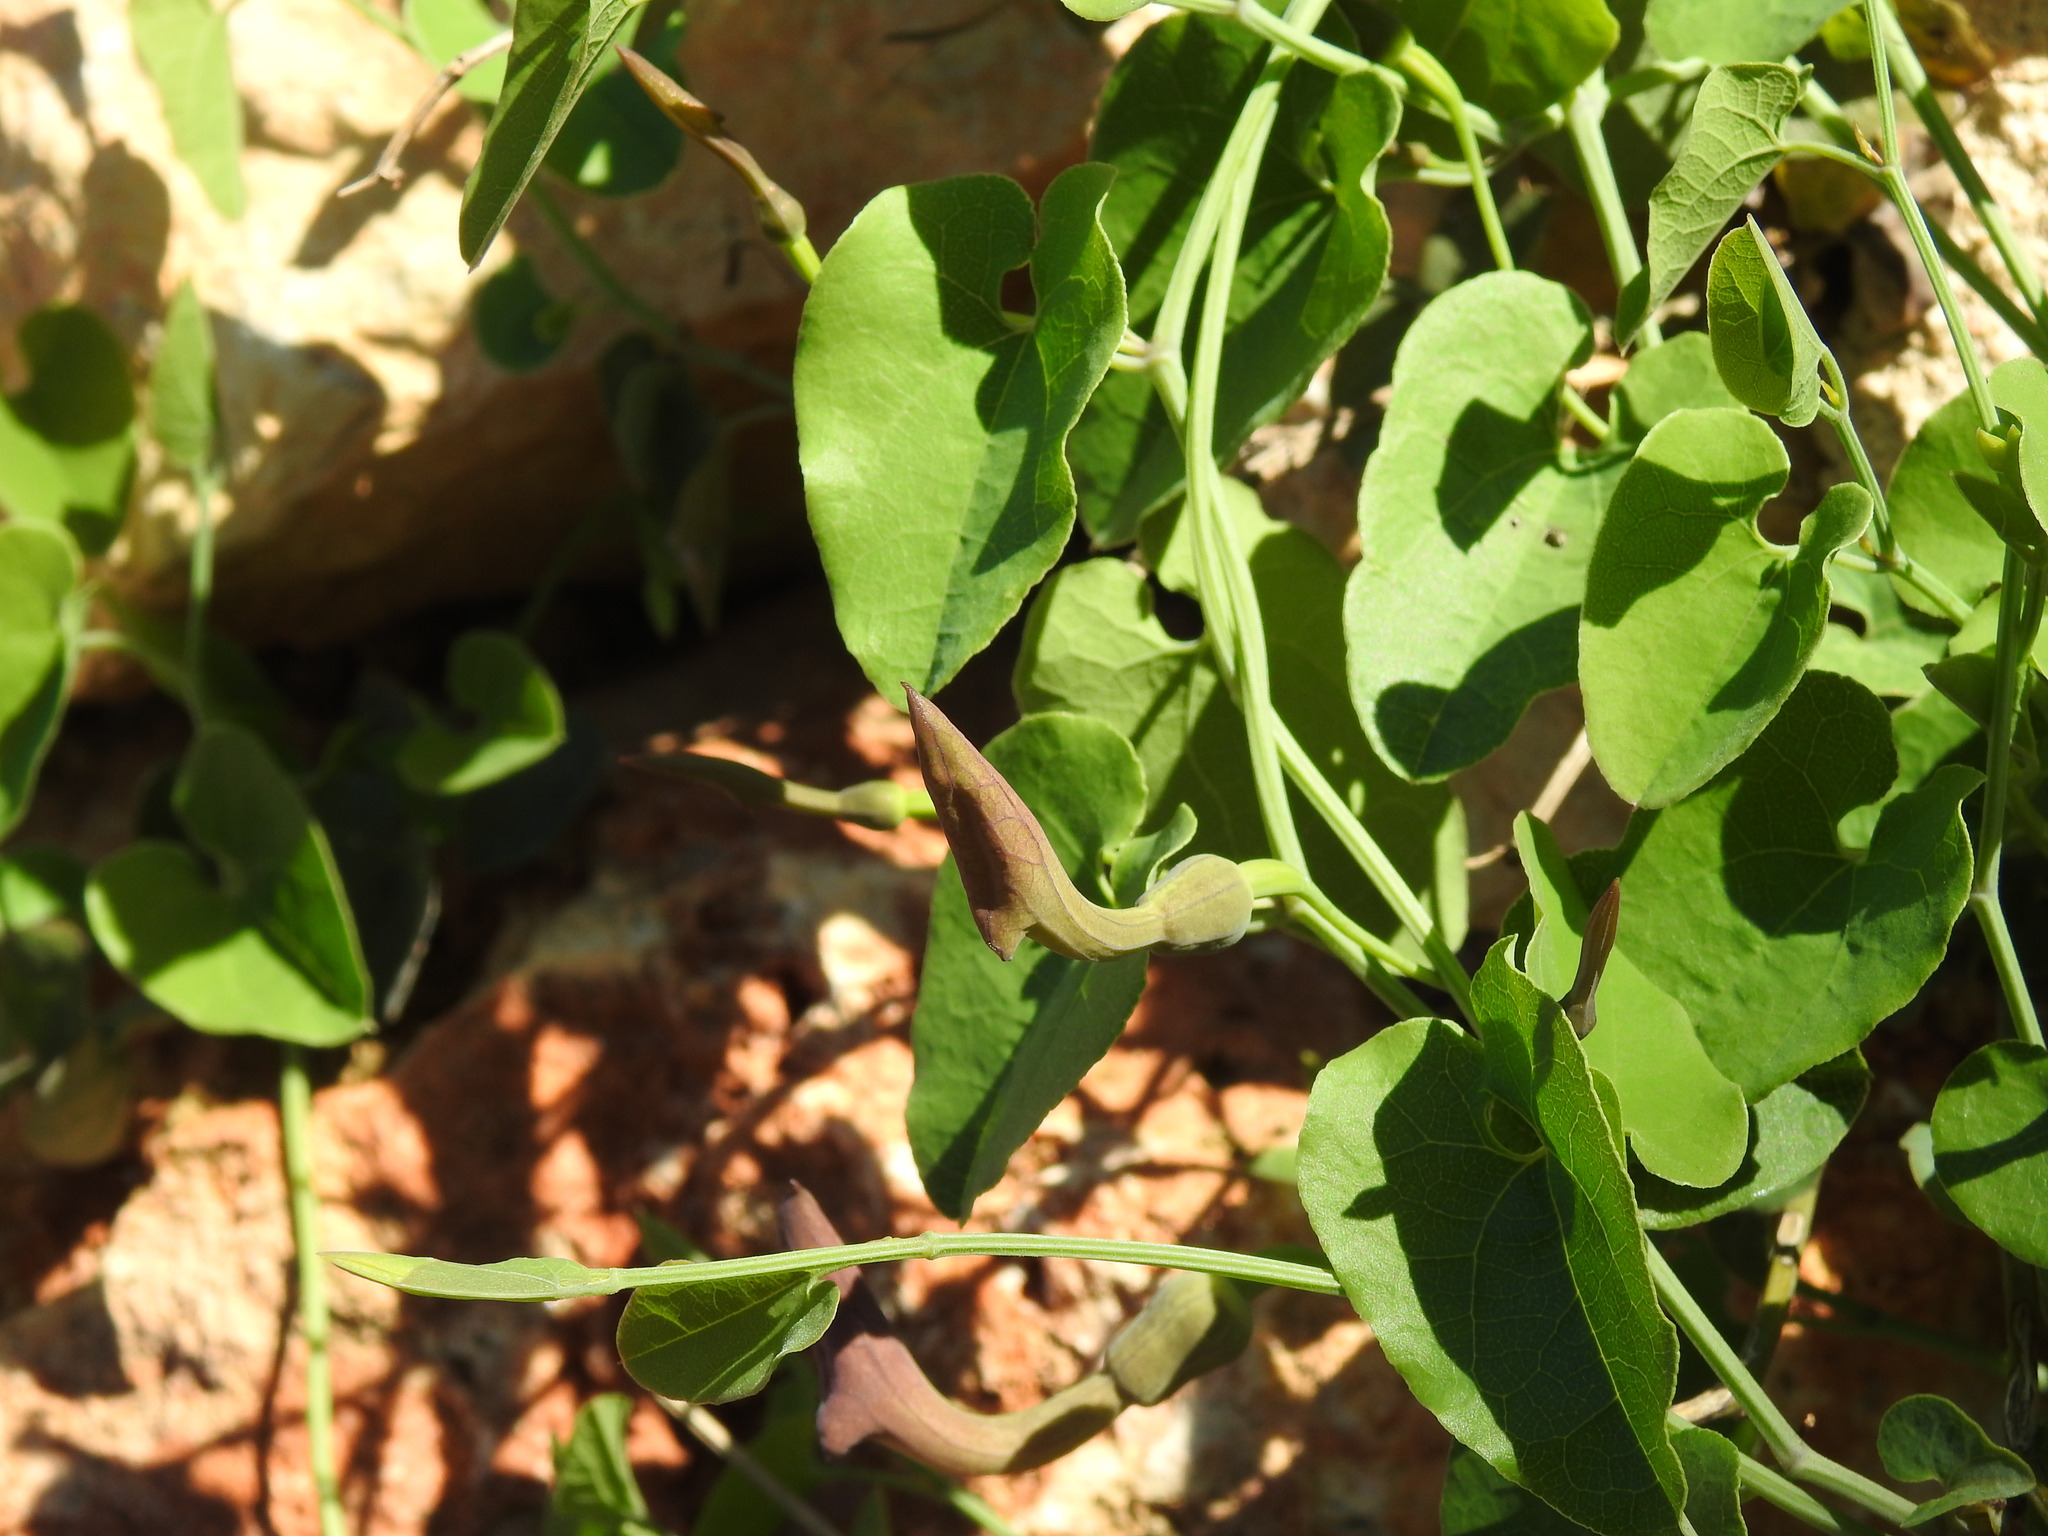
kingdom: Plantae
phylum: Tracheophyta
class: Magnoliopsida
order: Piperales
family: Aristolochiaceae
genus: Aristolochia
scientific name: Aristolochia baetica
